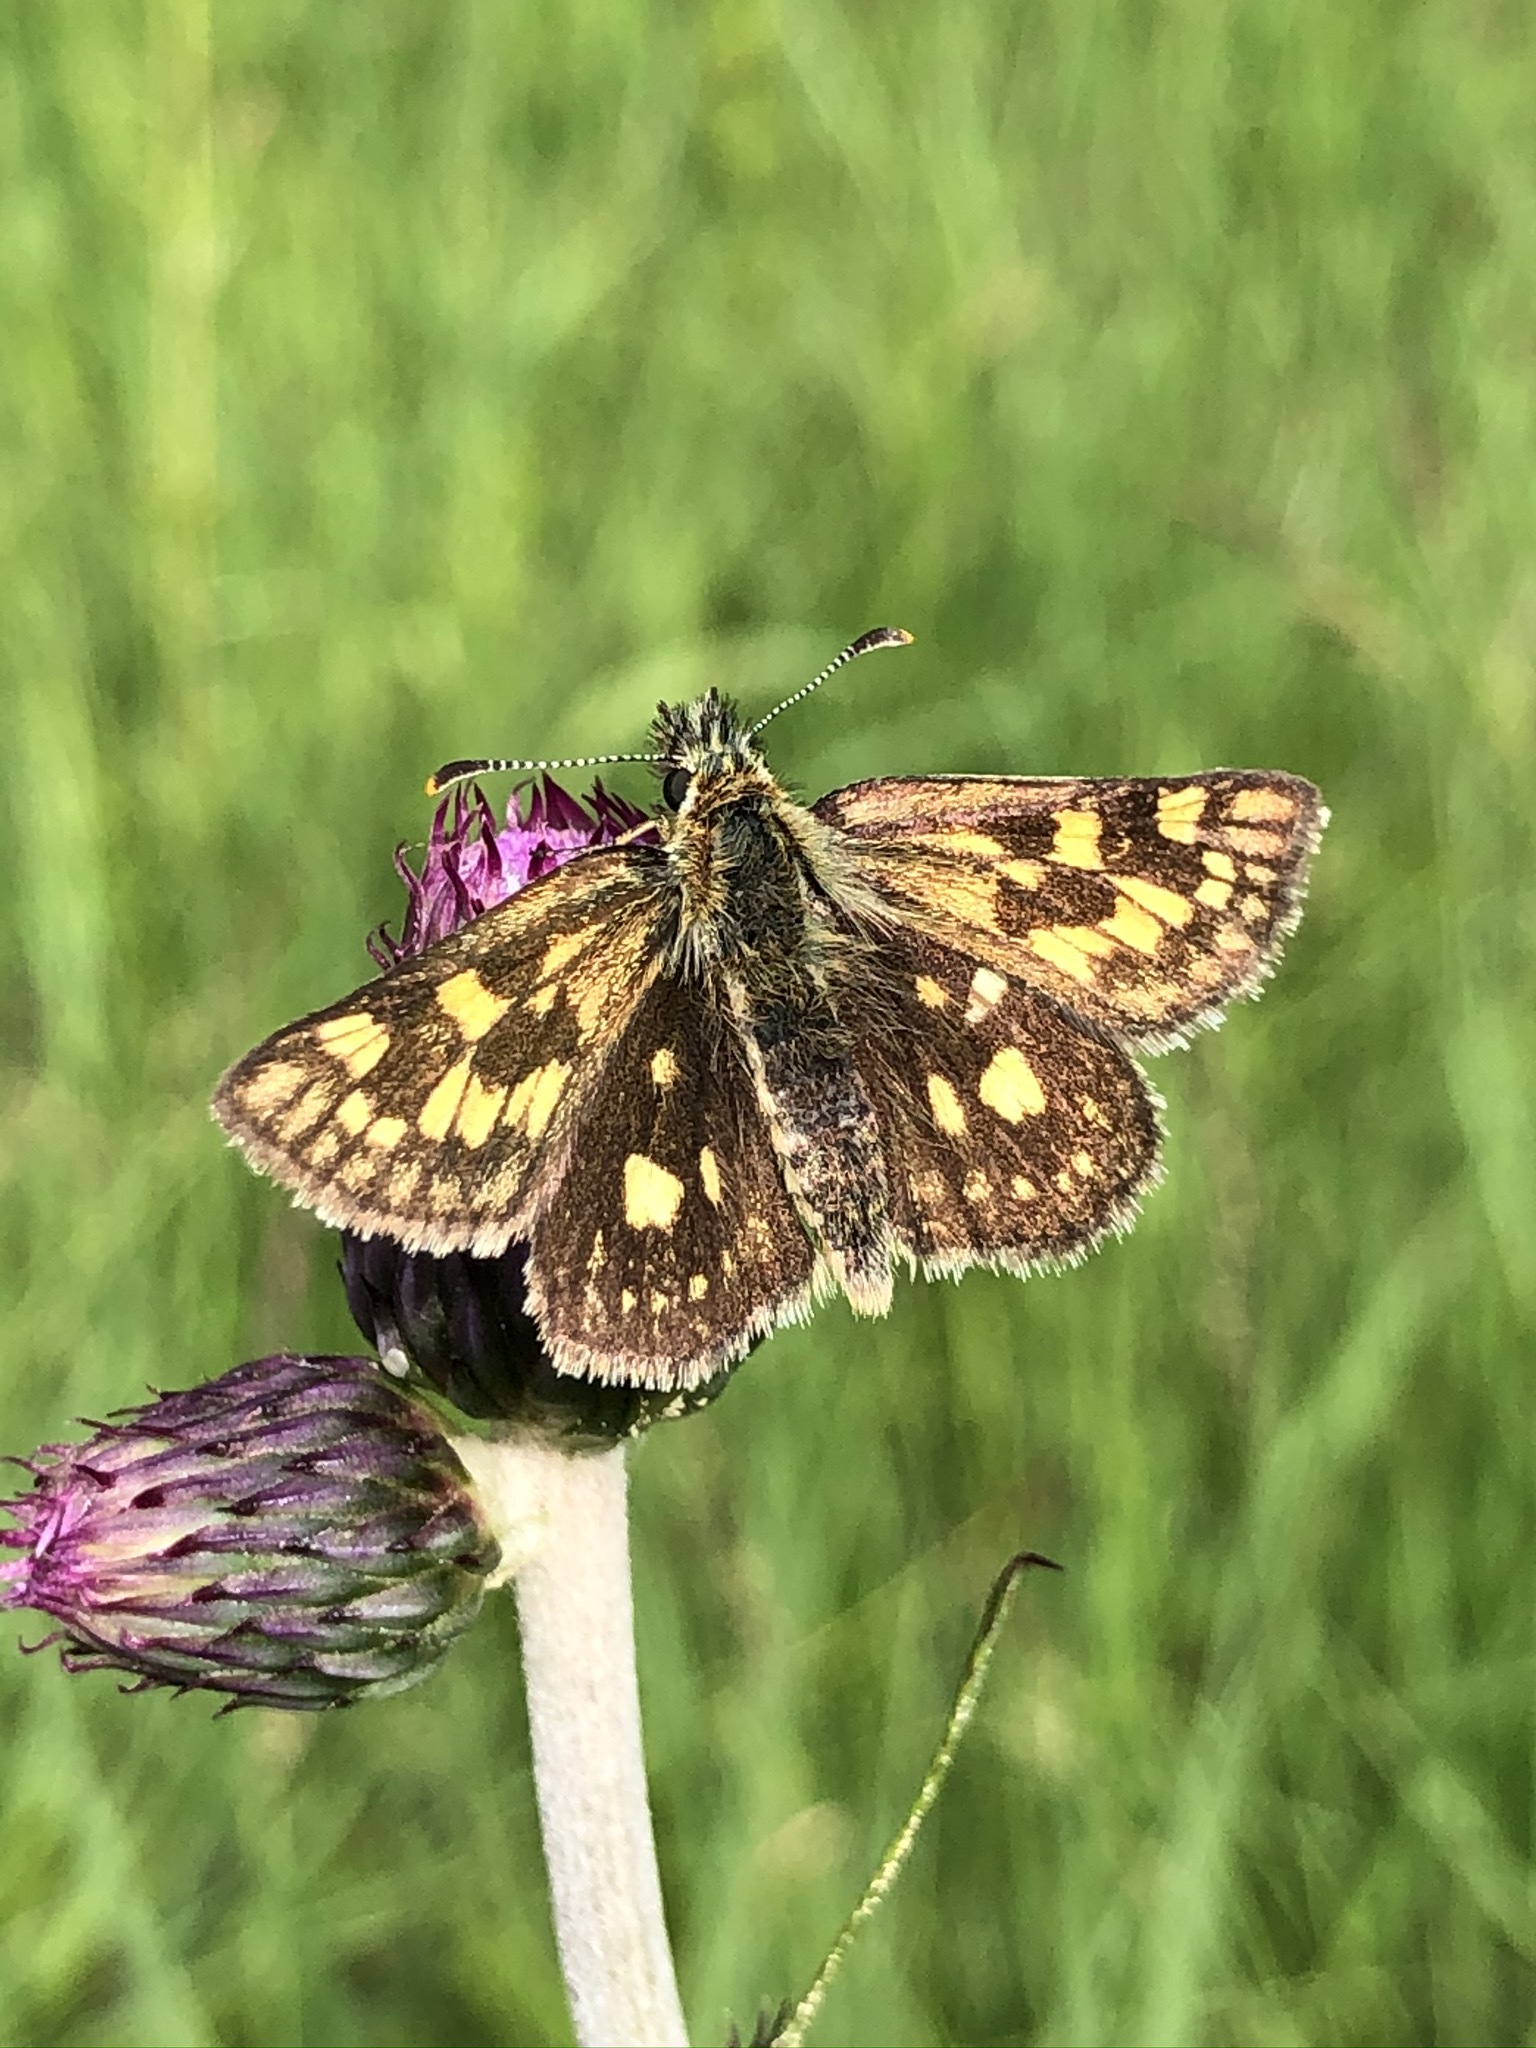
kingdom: Animalia
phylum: Arthropoda
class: Insecta
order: Lepidoptera
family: Hesperiidae
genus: Carterocephalus
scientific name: Carterocephalus palaemon
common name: Chequered skipper
